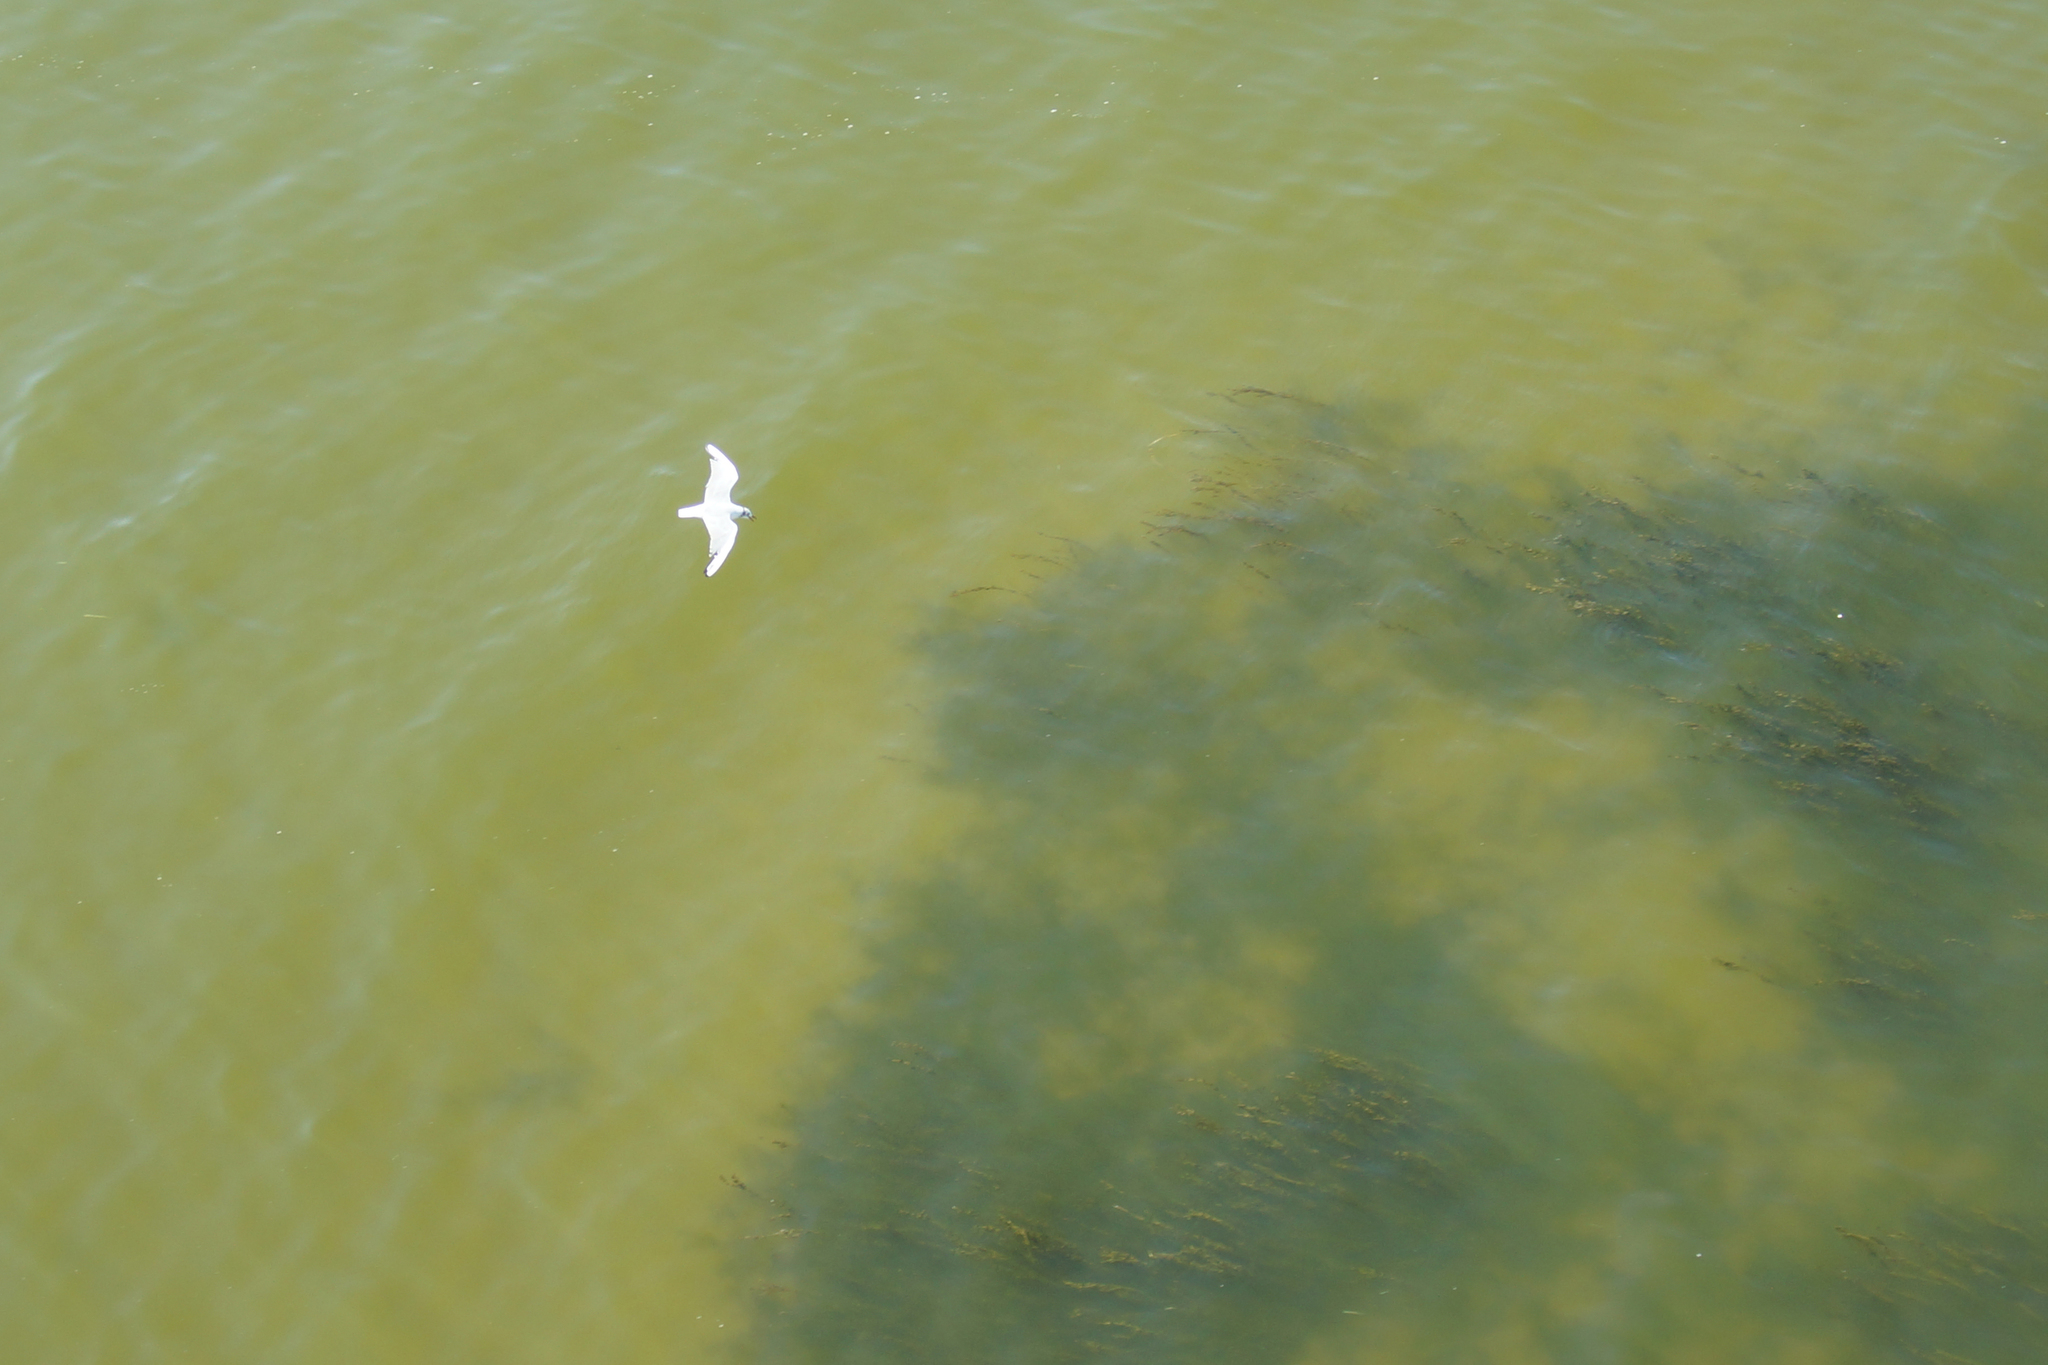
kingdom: Animalia
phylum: Chordata
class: Aves
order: Charadriiformes
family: Laridae
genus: Chroicocephalus
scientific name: Chroicocephalus ridibundus
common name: Black-headed gull
